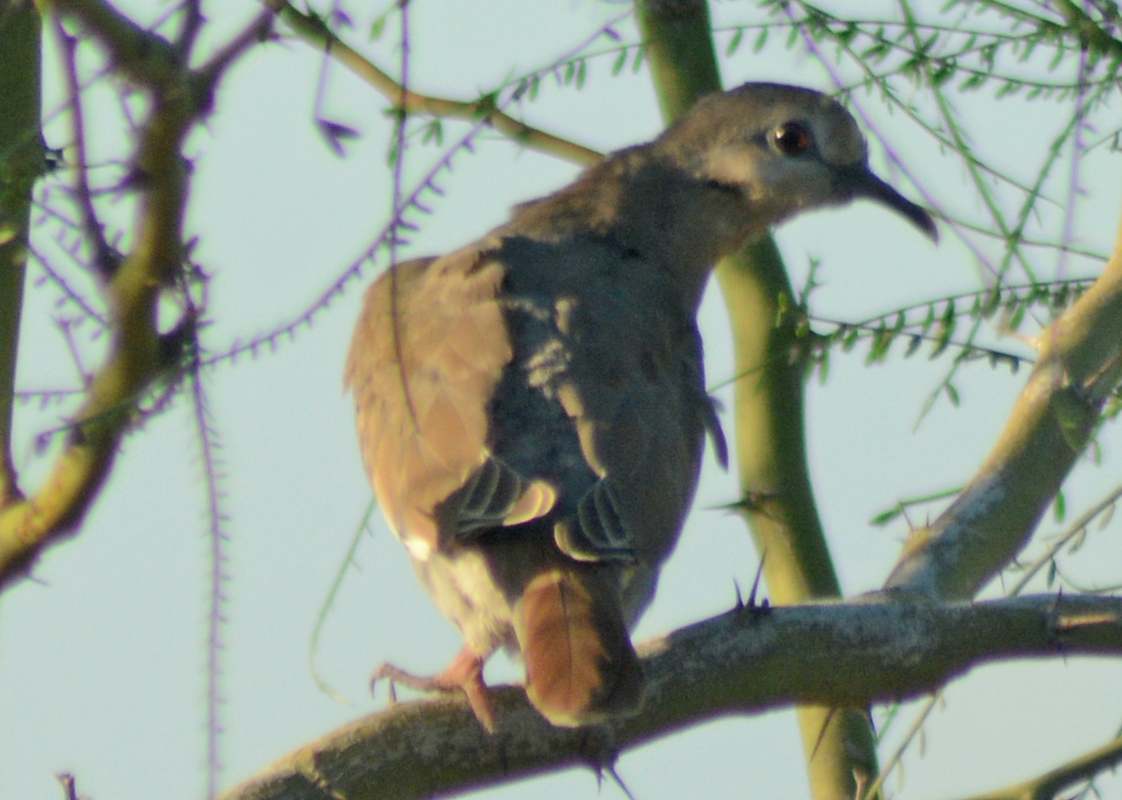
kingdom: Animalia
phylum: Chordata
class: Aves
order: Columbiformes
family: Columbidae
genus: Zenaida
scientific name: Zenaida asiatica
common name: White-winged dove
